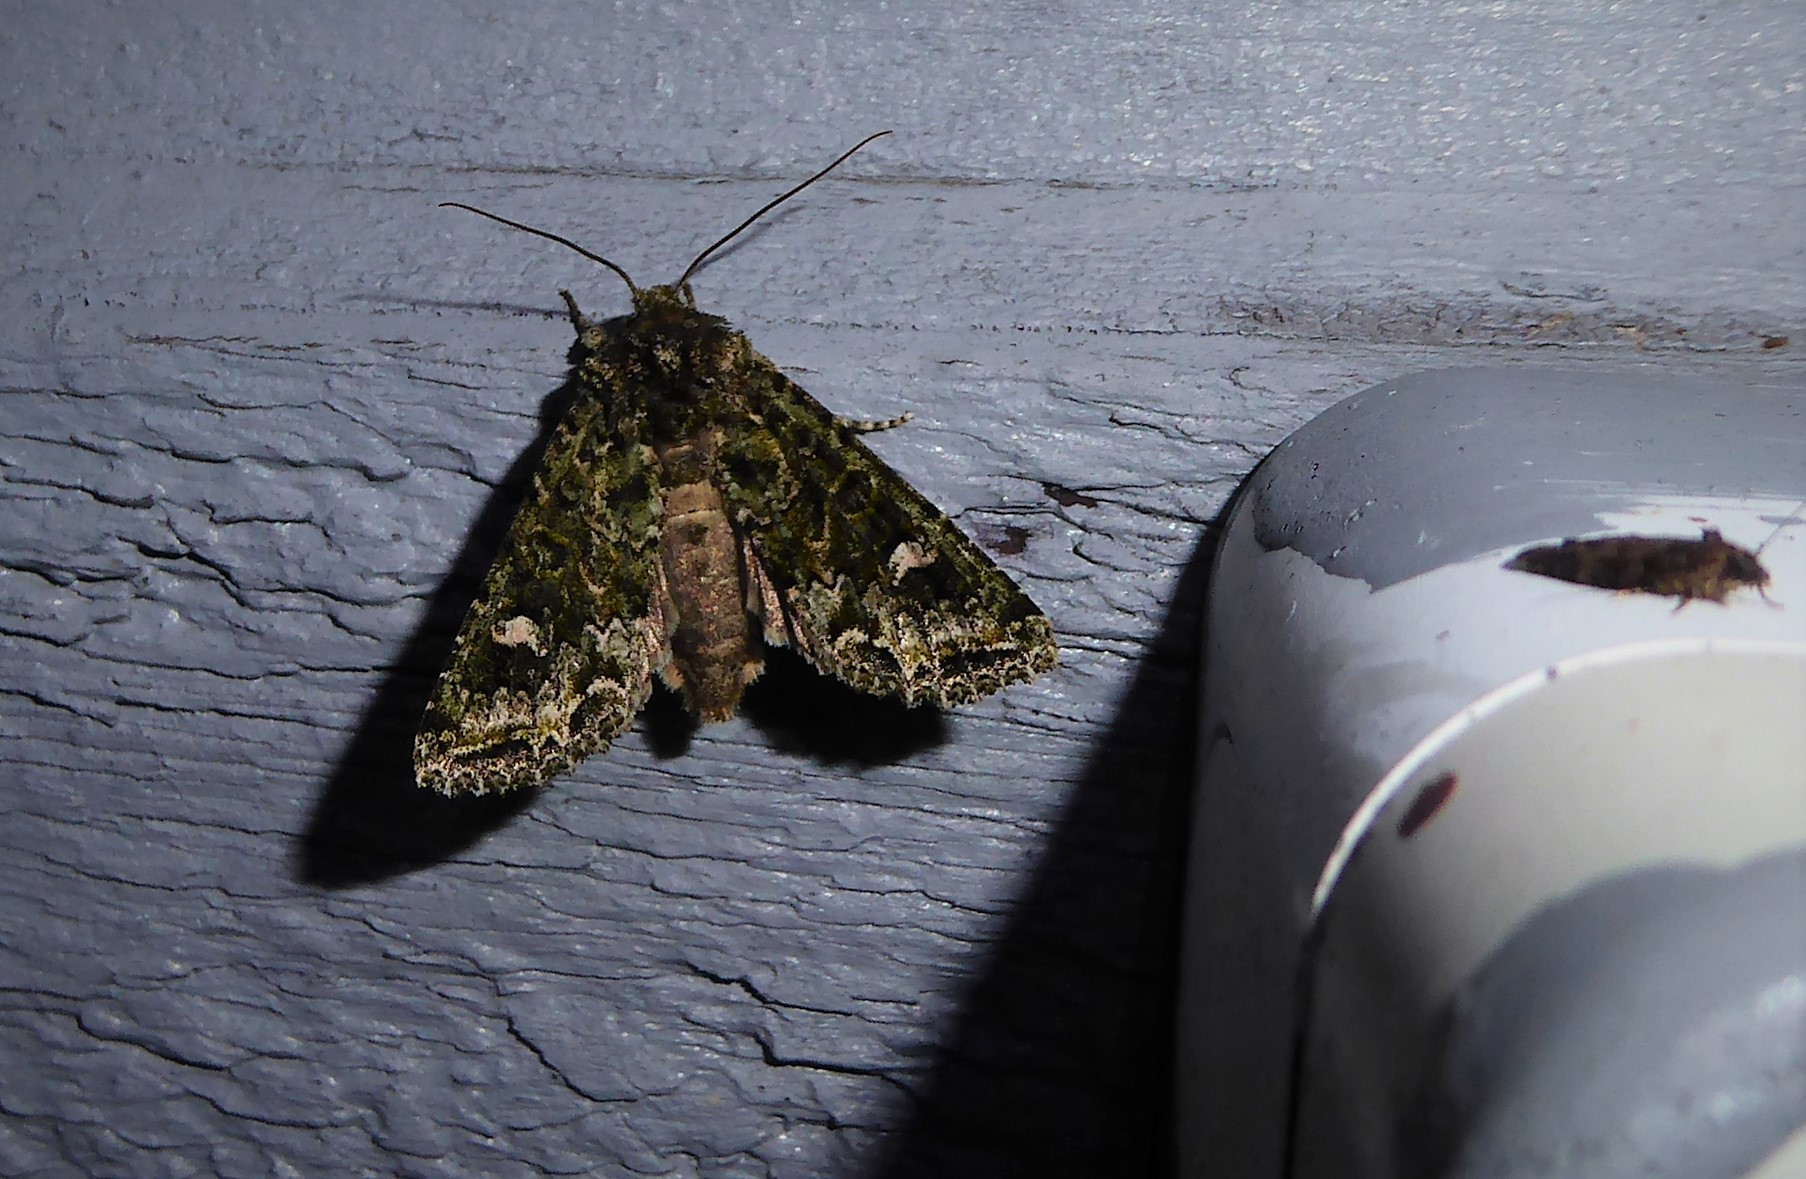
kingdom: Animalia
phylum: Arthropoda
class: Insecta
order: Lepidoptera
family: Noctuidae
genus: Ichneutica
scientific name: Ichneutica
